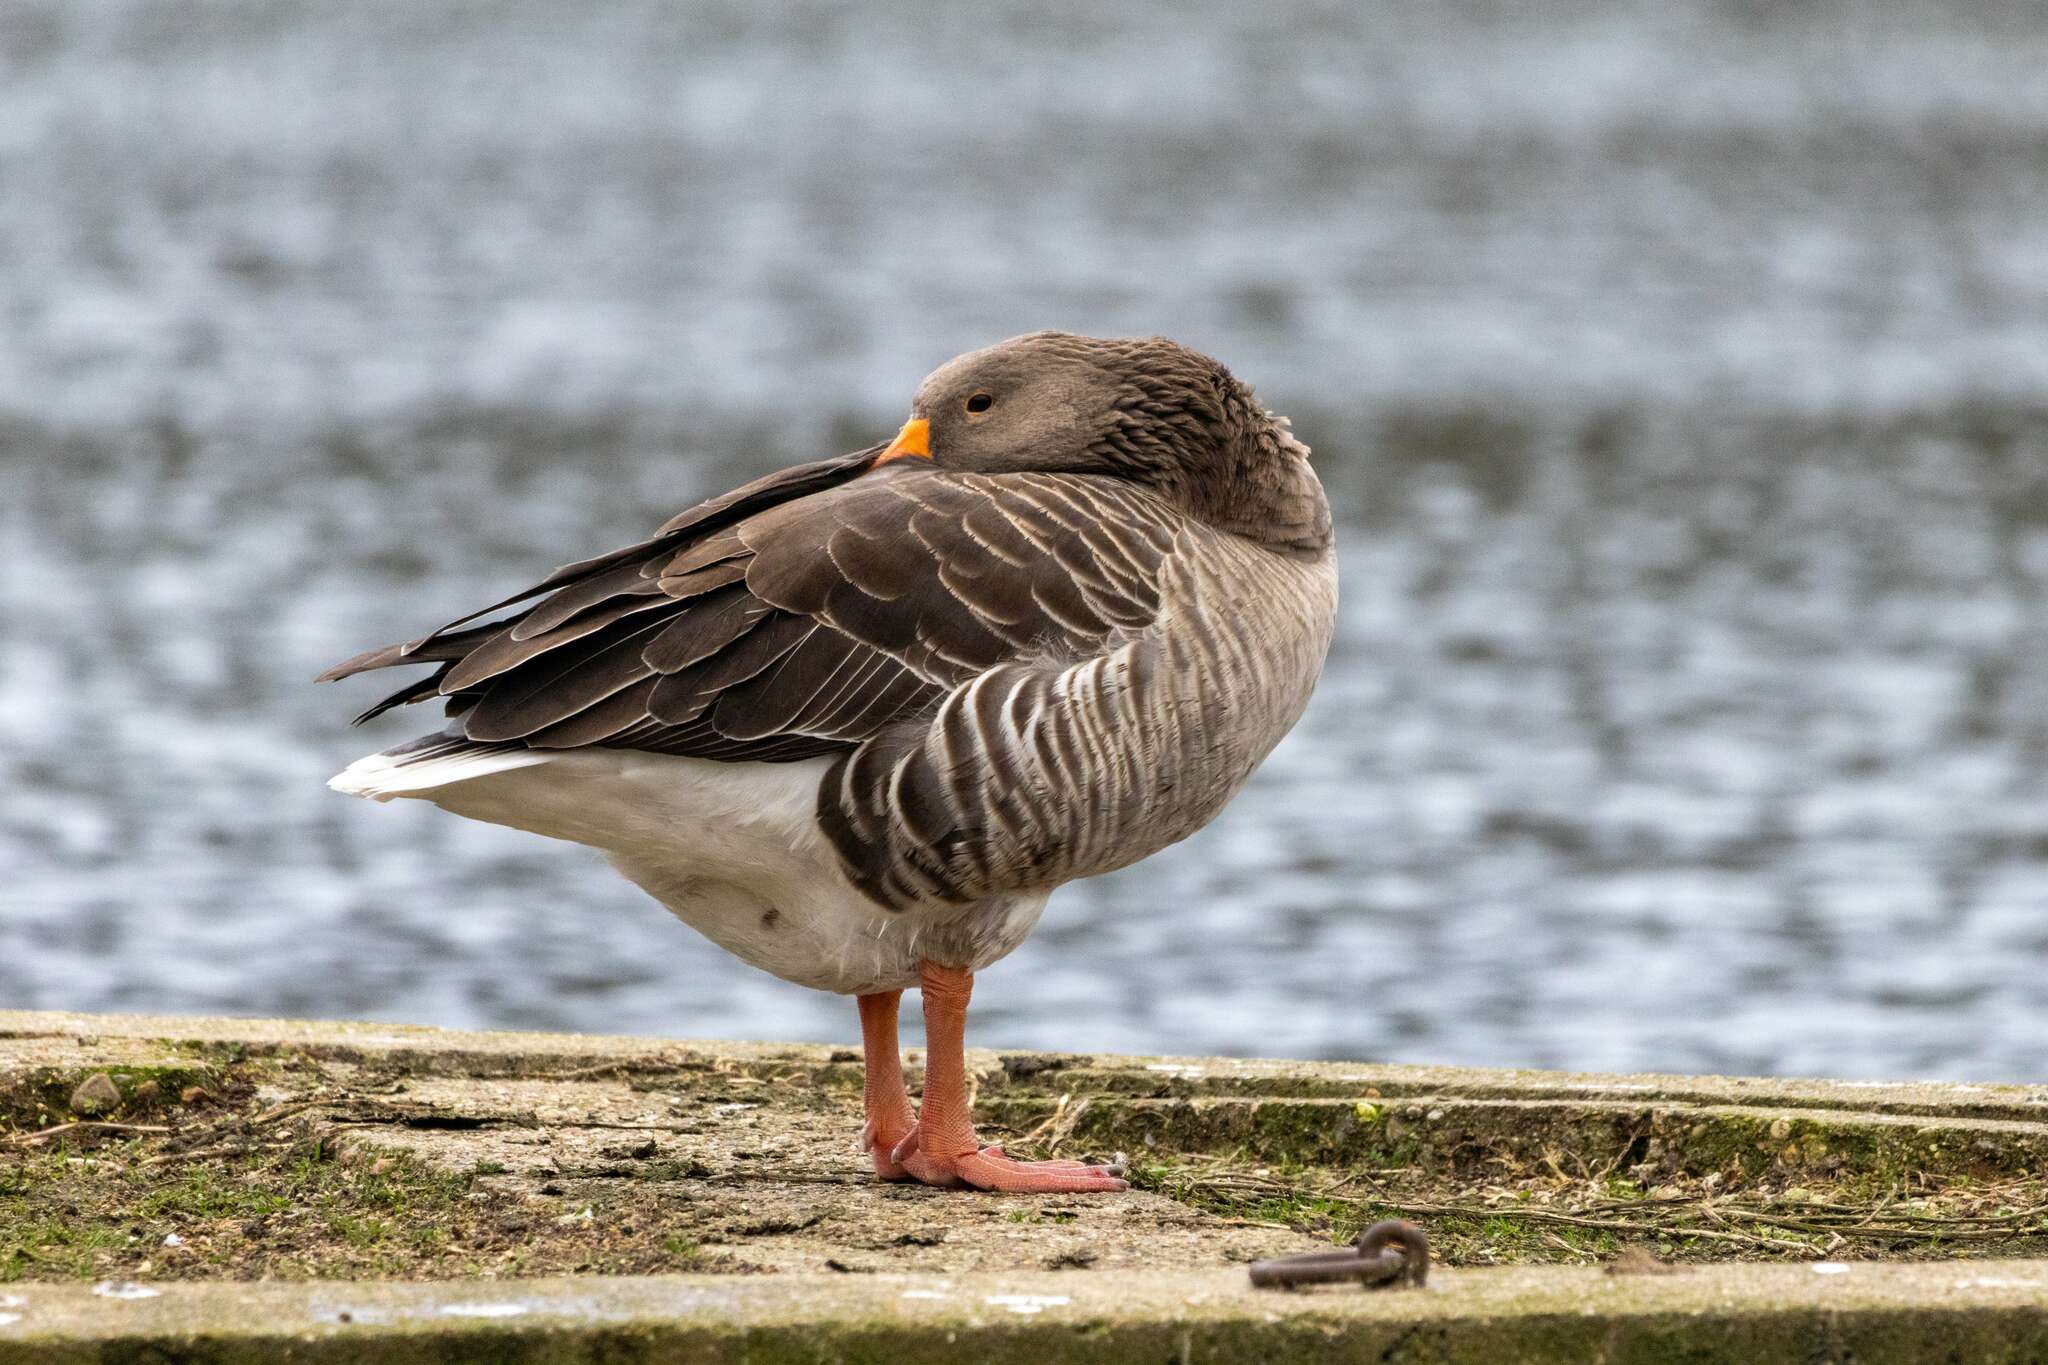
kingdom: Animalia
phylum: Chordata
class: Aves
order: Anseriformes
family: Anatidae
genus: Anser
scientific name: Anser anser
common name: Greylag goose
